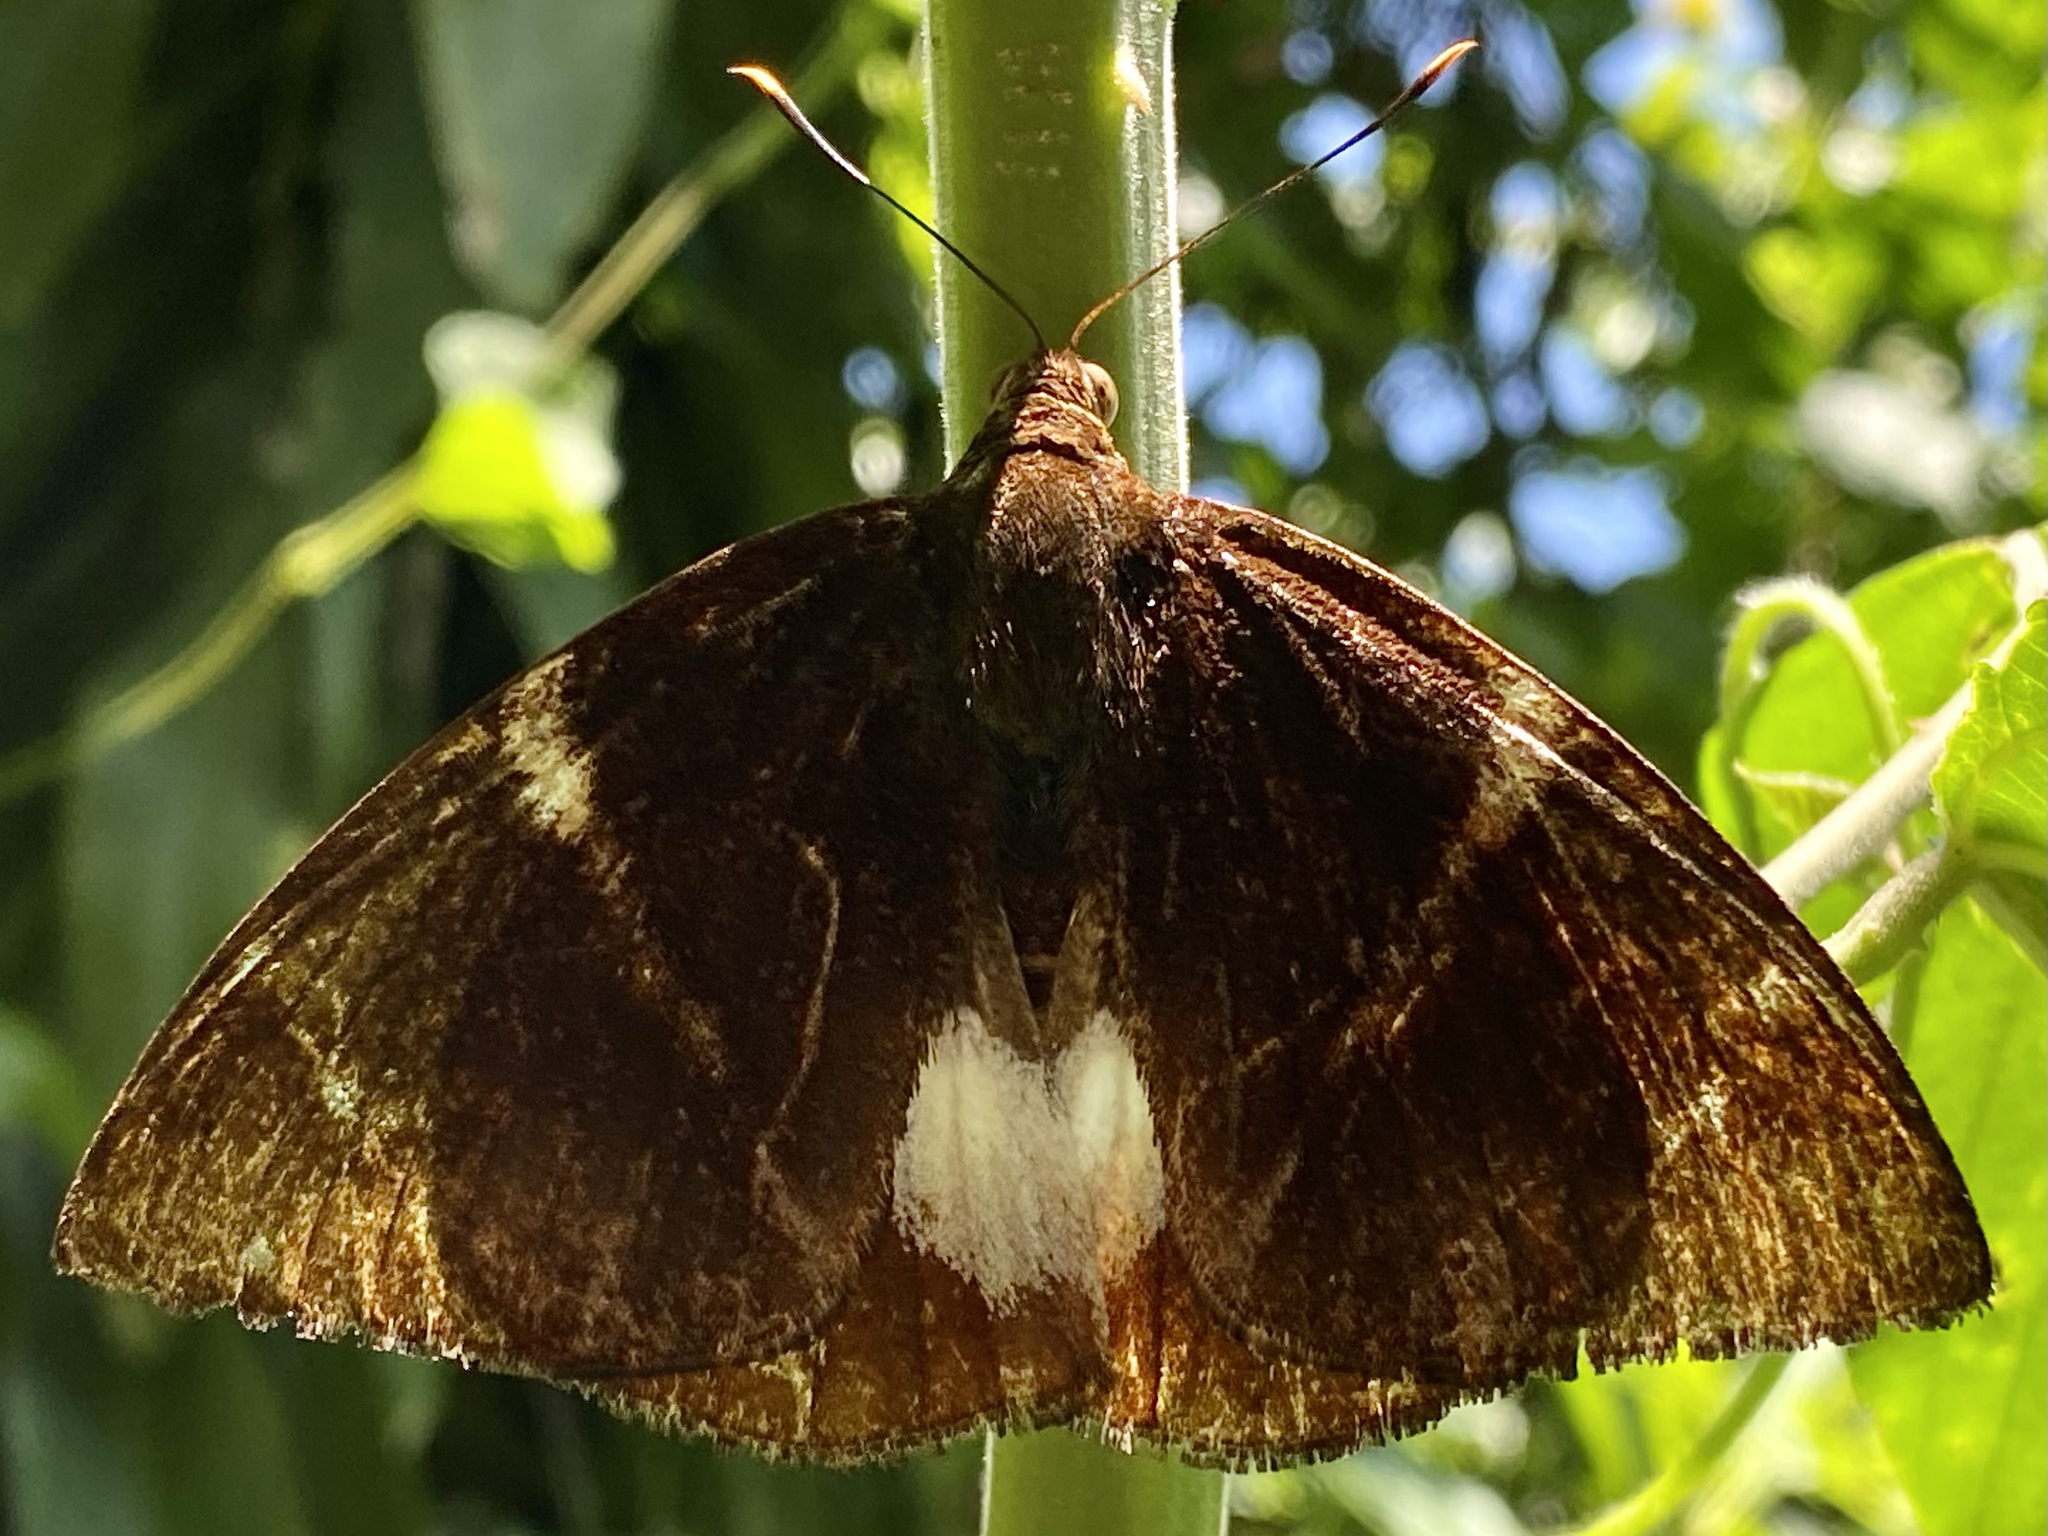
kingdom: Animalia
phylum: Arthropoda
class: Insecta
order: Lepidoptera
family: Castniidae
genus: Castniomera
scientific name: Castniomera atymnius
